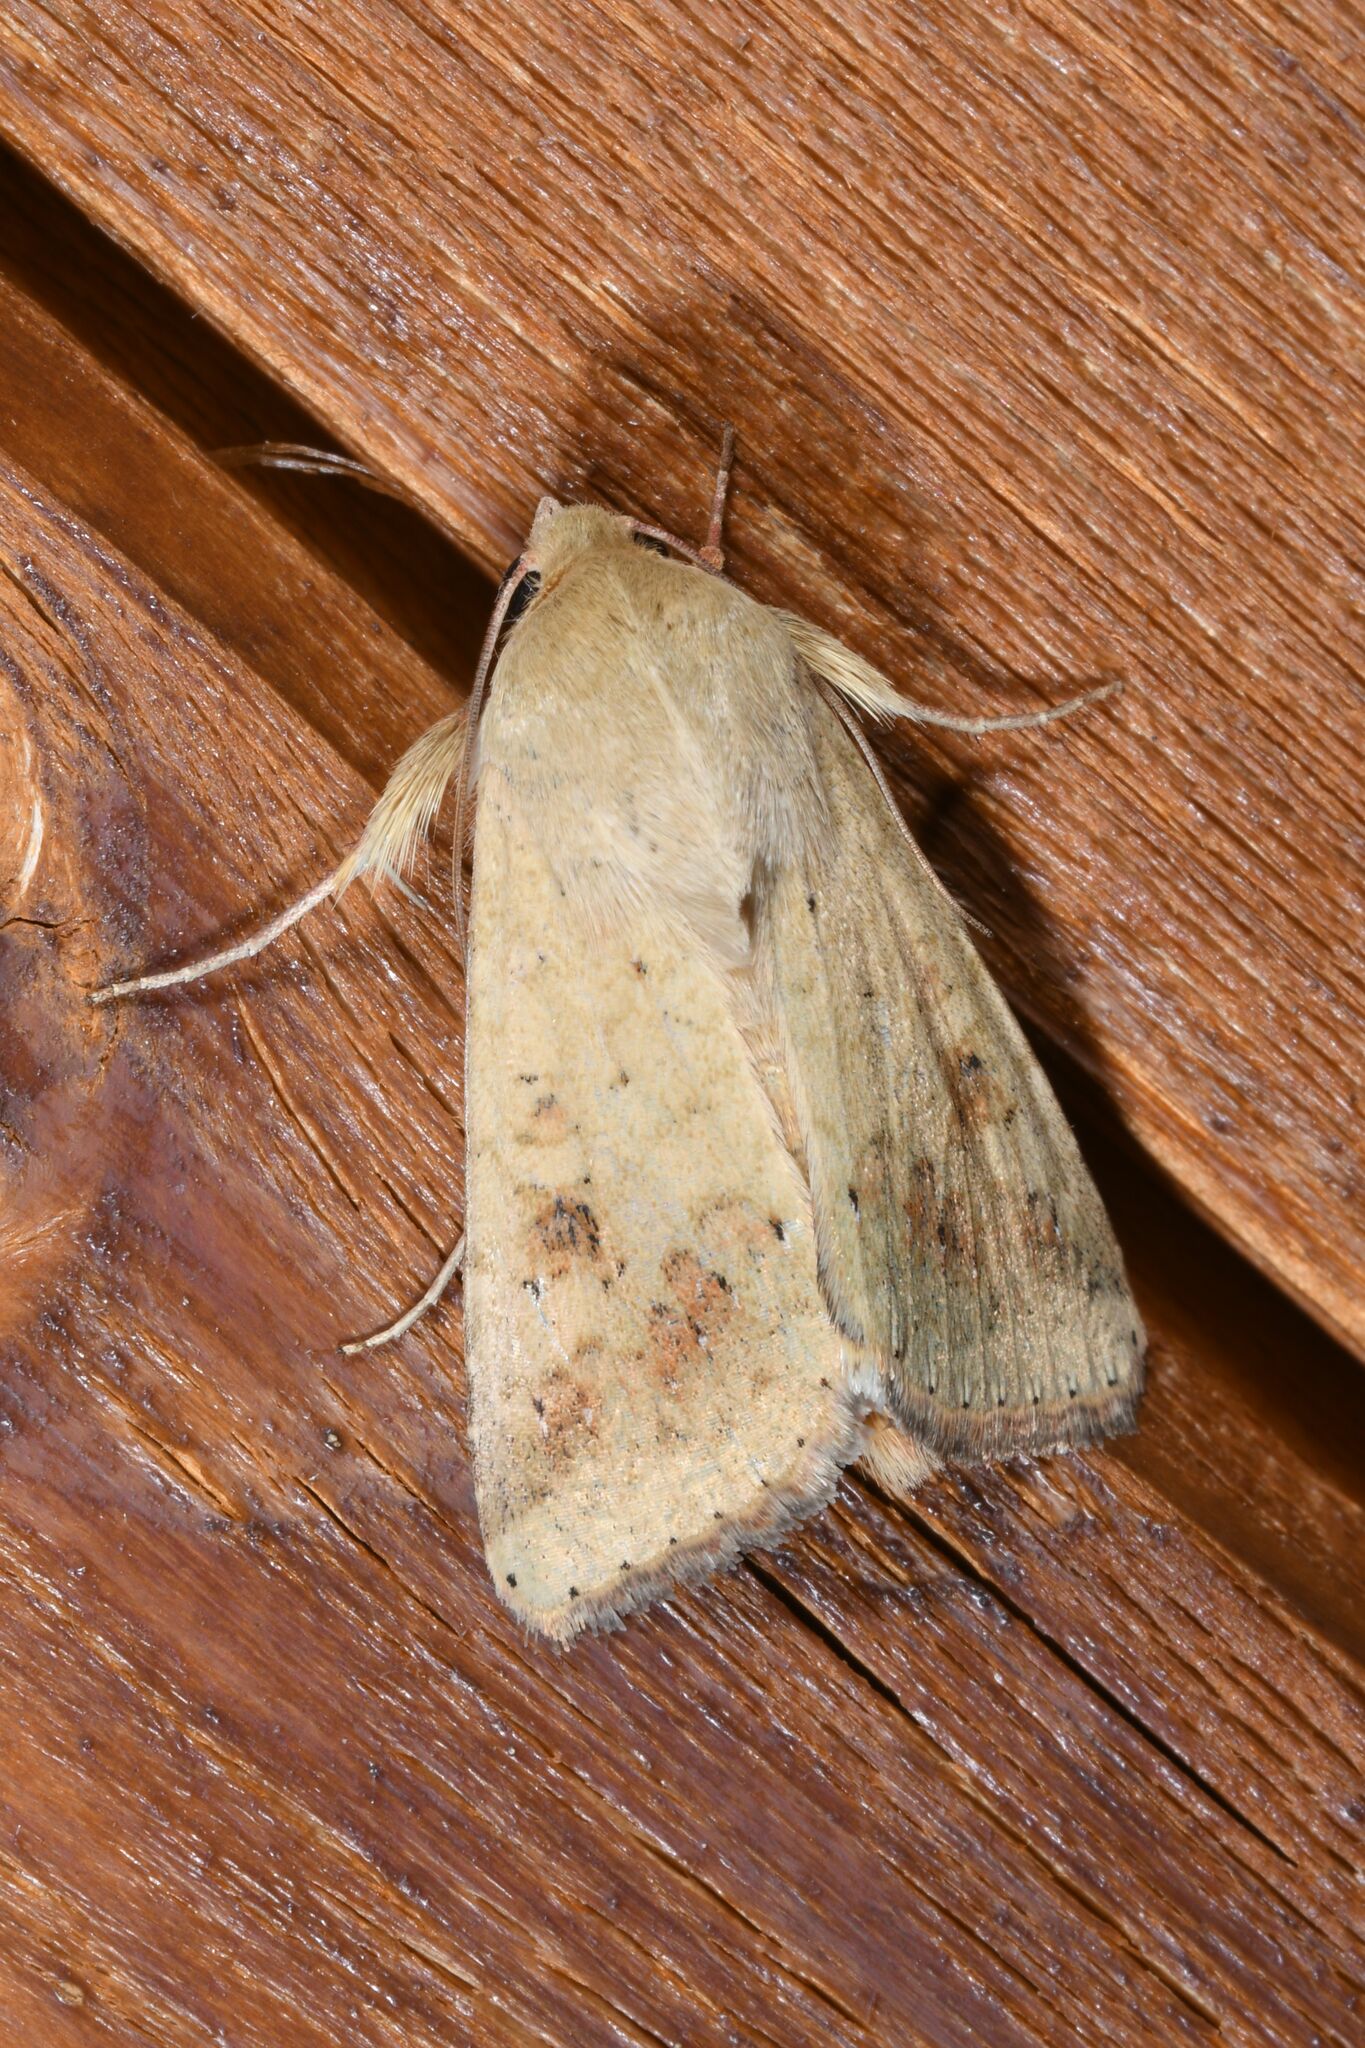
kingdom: Animalia
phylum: Arthropoda
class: Insecta
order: Lepidoptera
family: Noctuidae
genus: Helicoverpa
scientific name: Helicoverpa armigera
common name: Cotton bollworm
